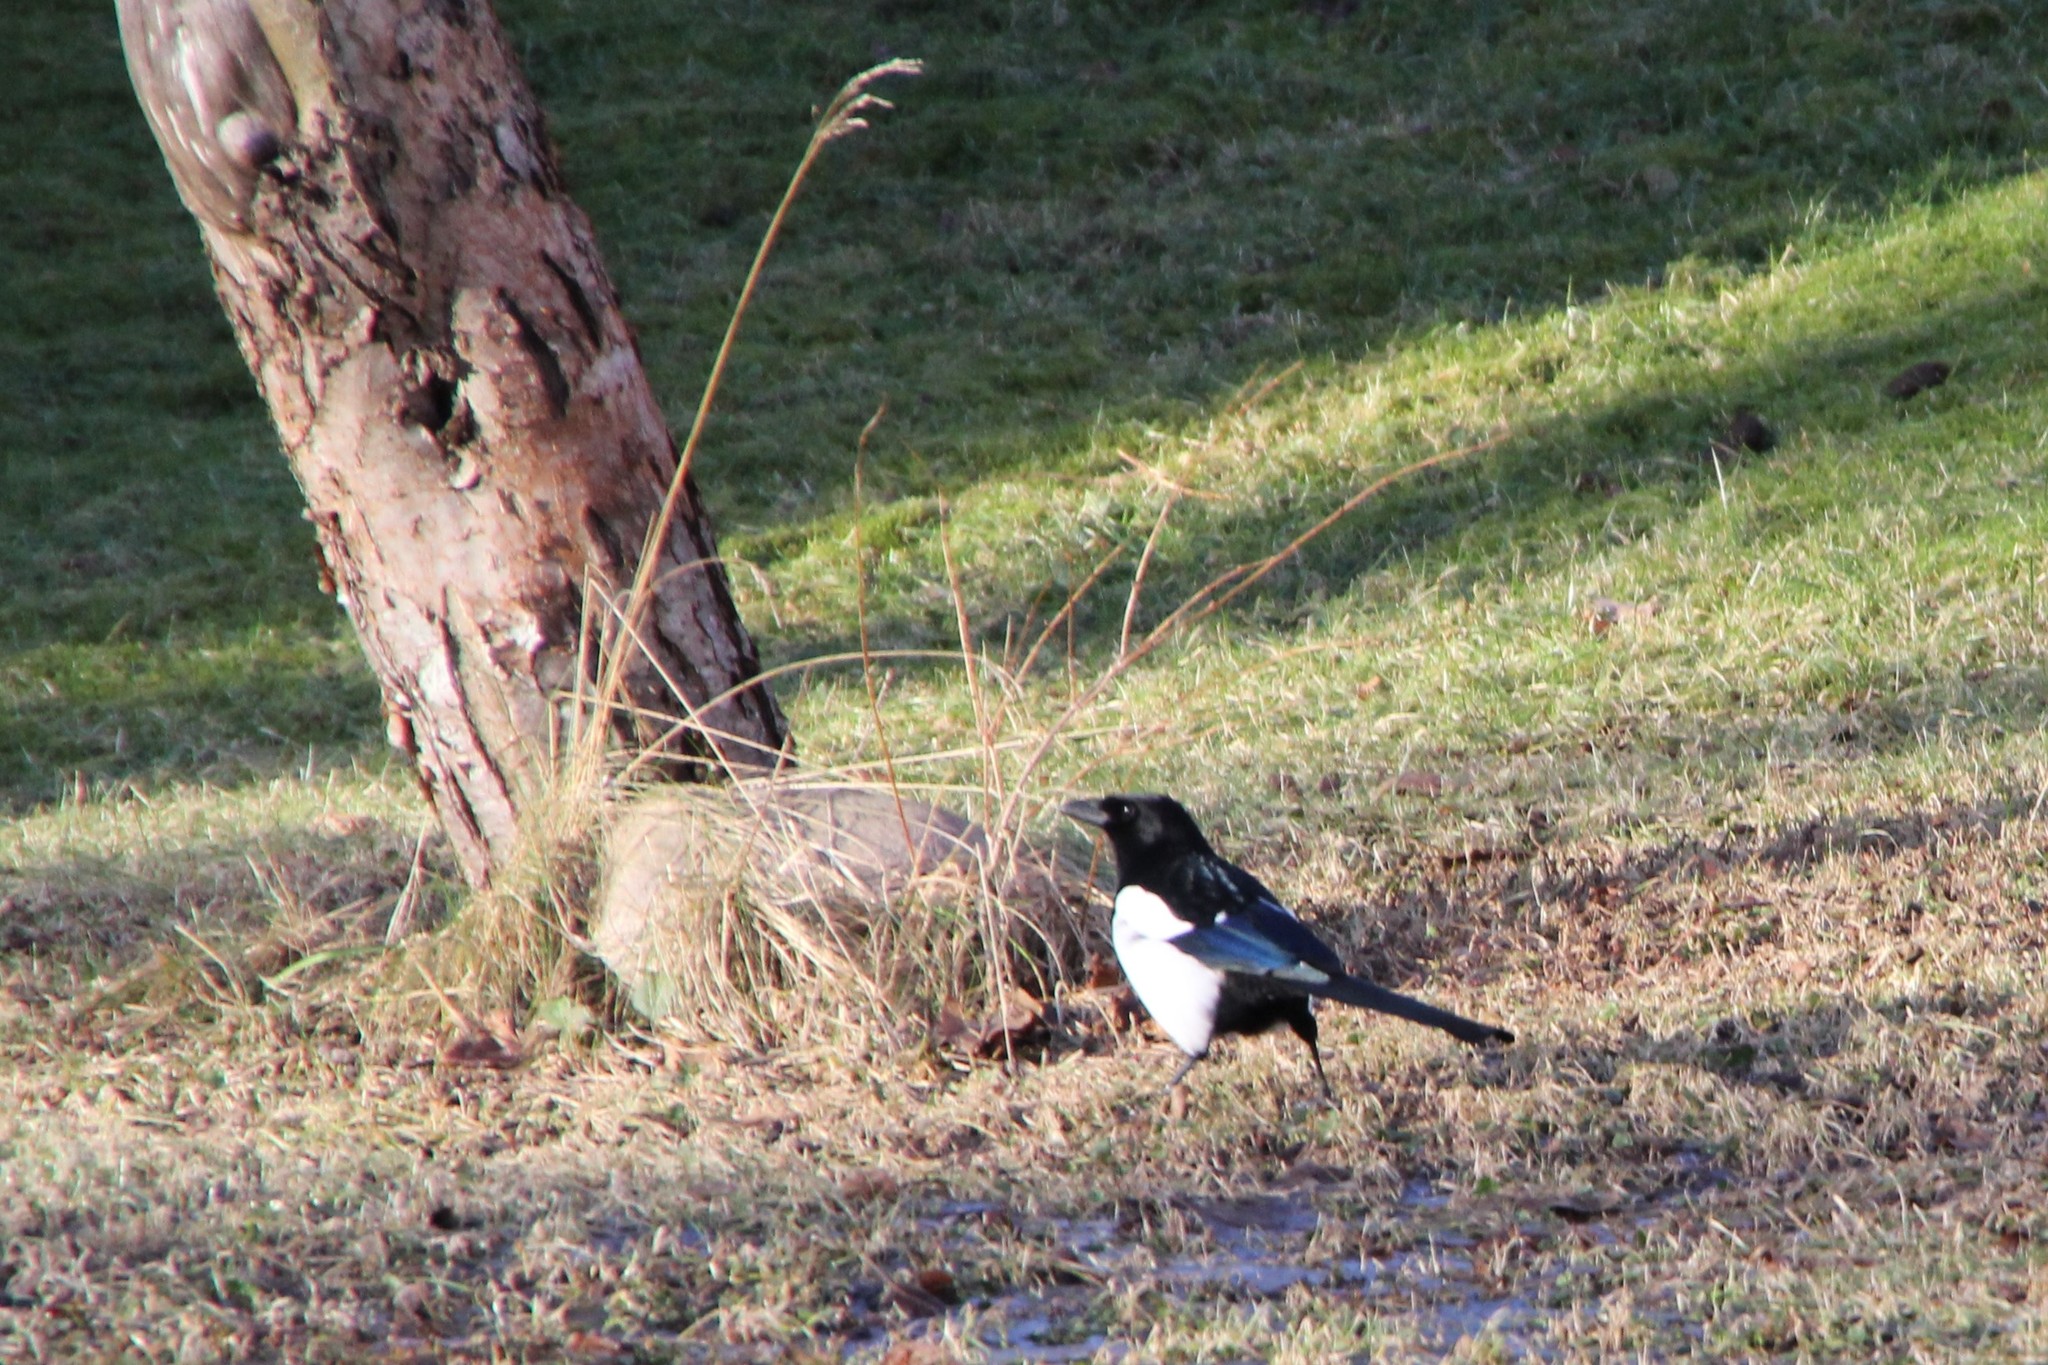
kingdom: Animalia
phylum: Chordata
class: Aves
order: Passeriformes
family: Corvidae
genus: Pica
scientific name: Pica pica
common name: Eurasian magpie
